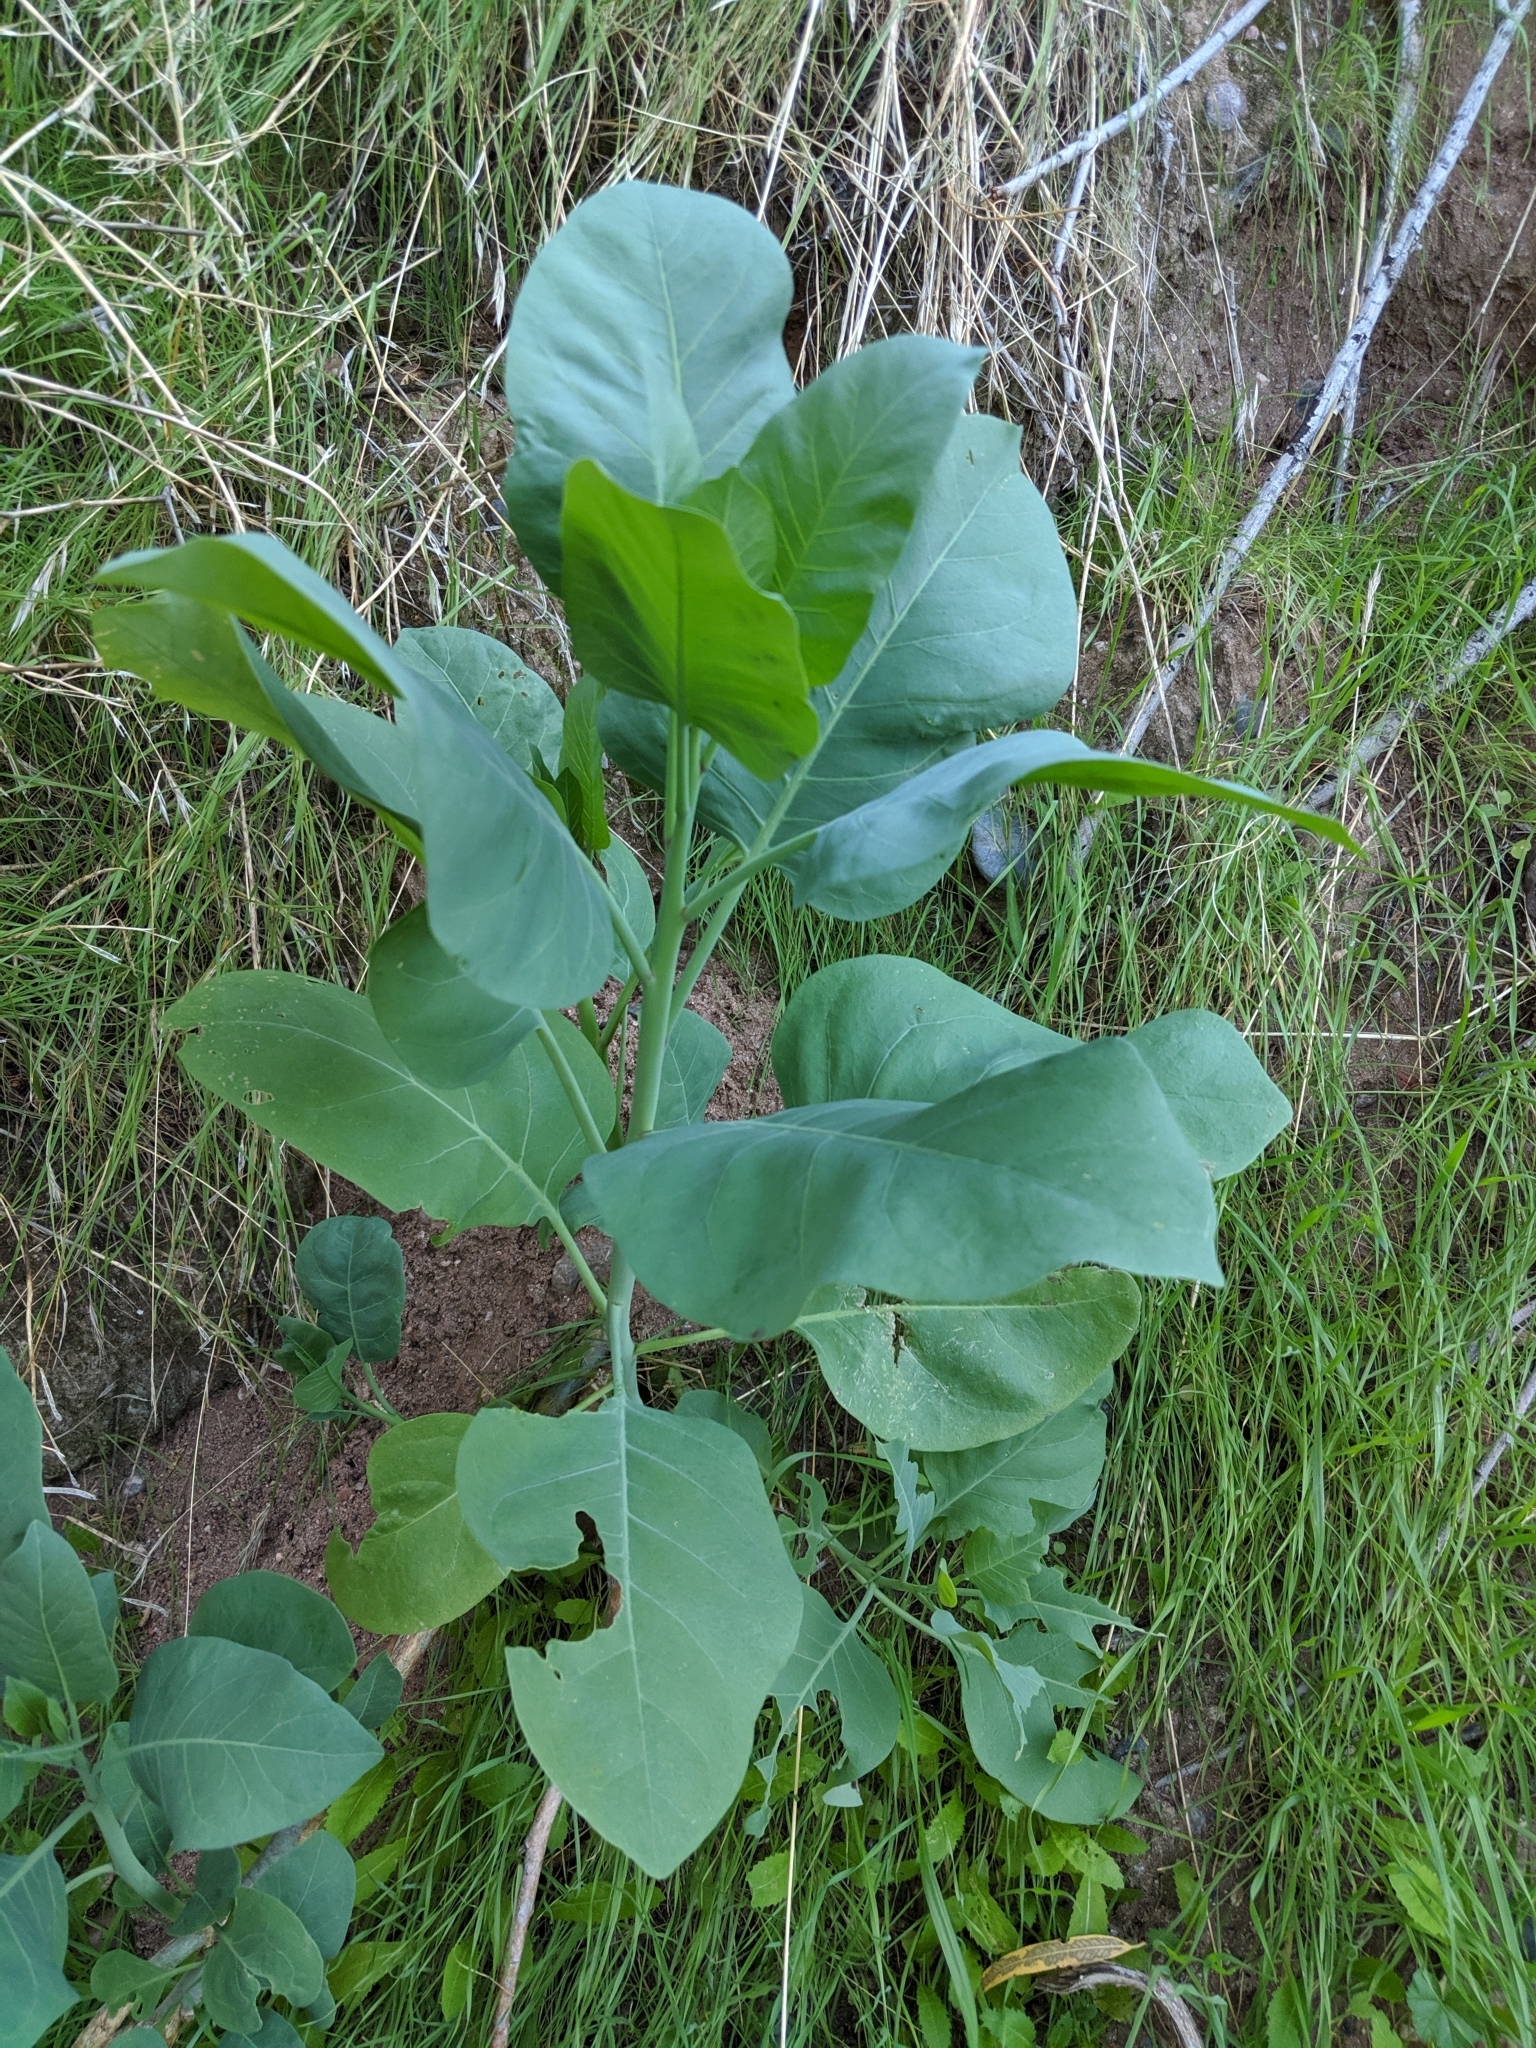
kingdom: Plantae
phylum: Tracheophyta
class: Magnoliopsida
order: Solanales
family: Solanaceae
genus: Nicotiana
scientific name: Nicotiana glauca
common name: Tree tobacco
